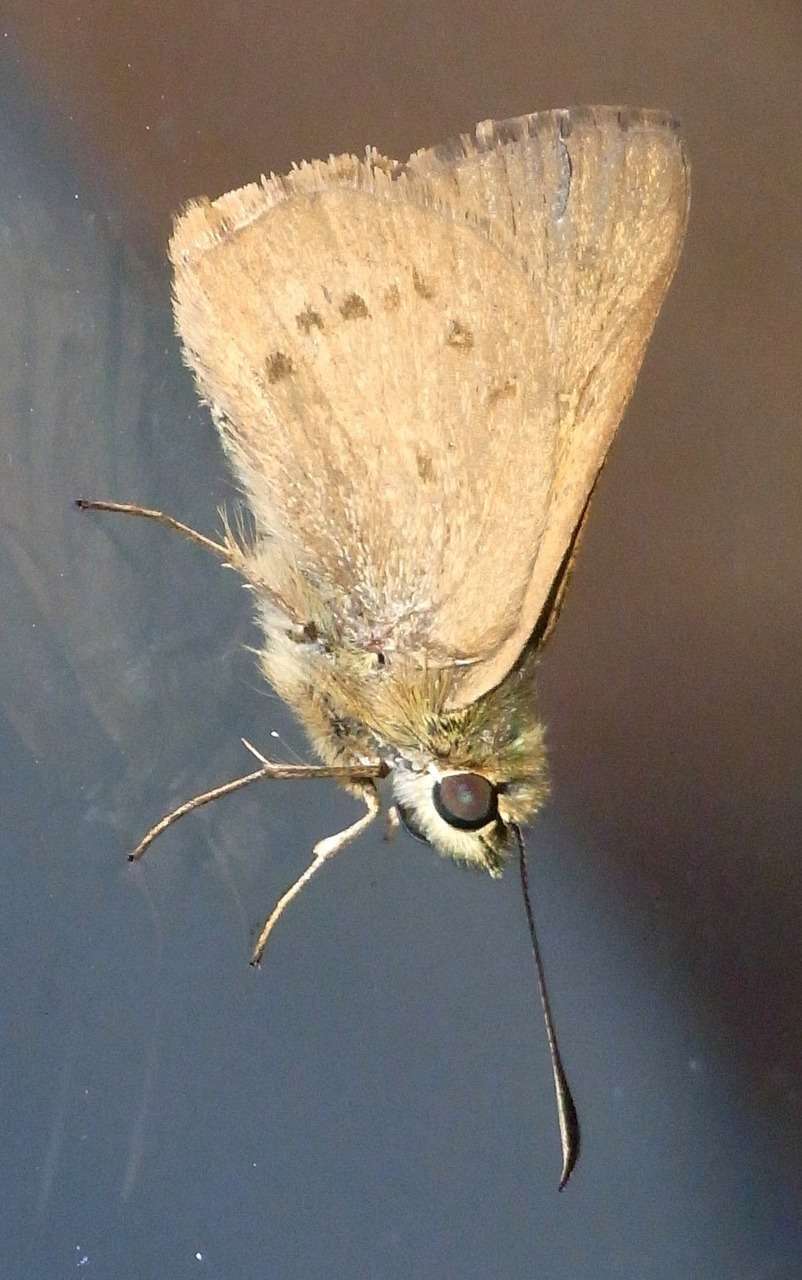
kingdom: Animalia
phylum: Arthropoda
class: Insecta
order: Lepidoptera
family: Hesperiidae
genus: Toxidia
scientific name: Toxidia
